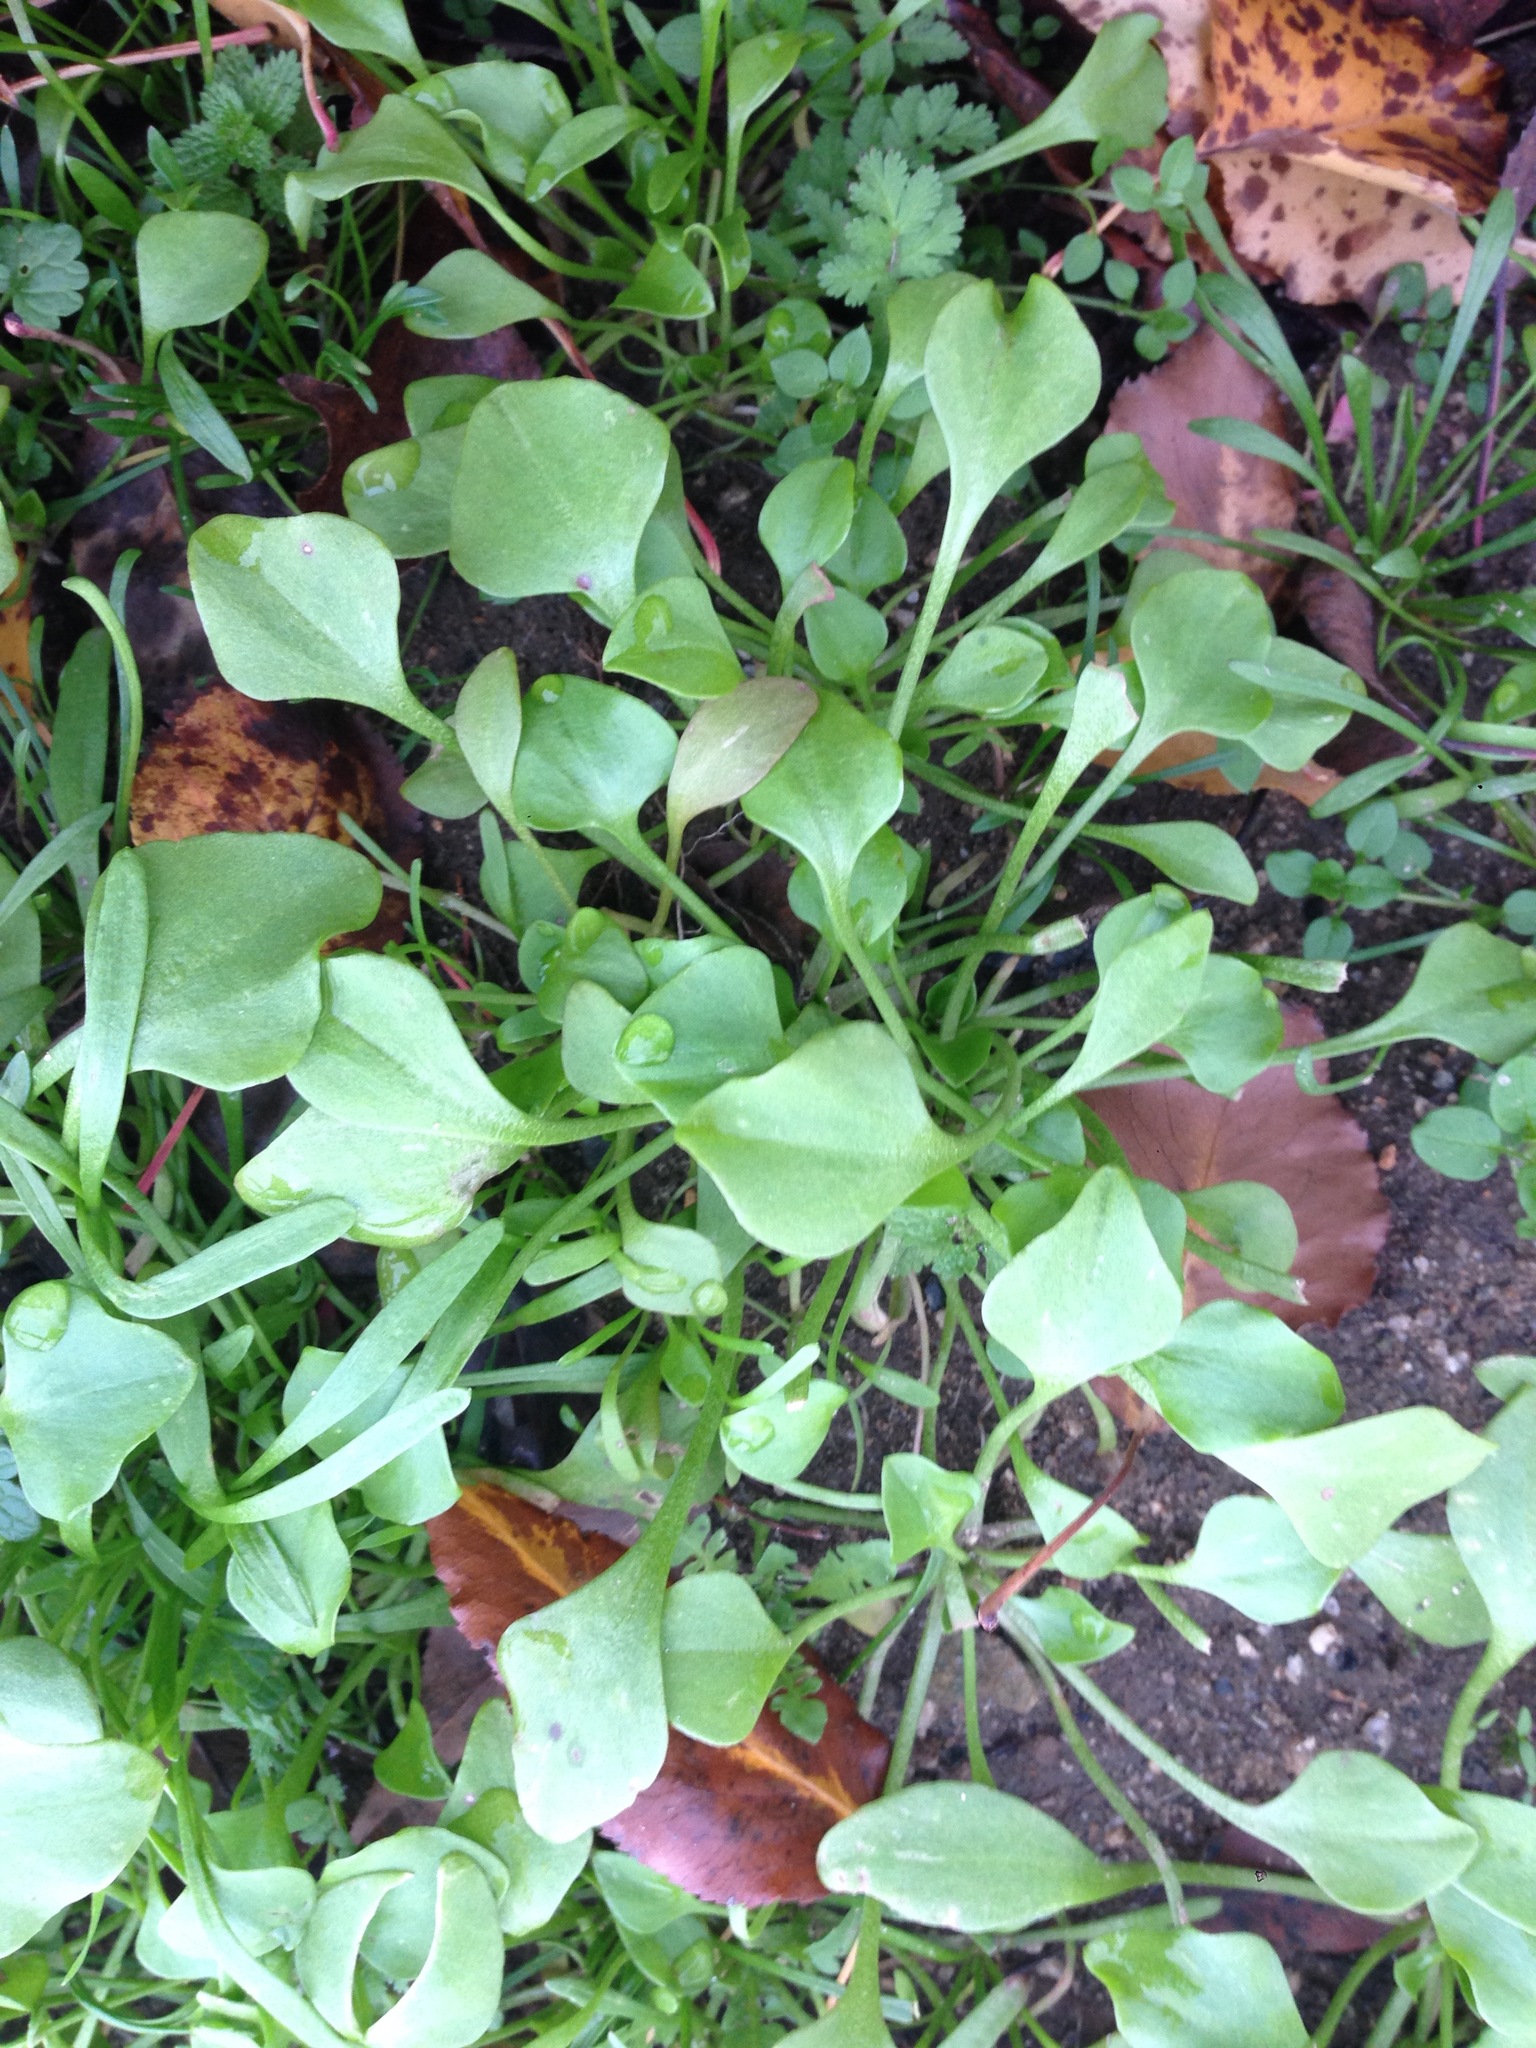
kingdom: Plantae
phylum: Tracheophyta
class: Magnoliopsida
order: Caryophyllales
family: Montiaceae
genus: Claytonia
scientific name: Claytonia perfoliata
